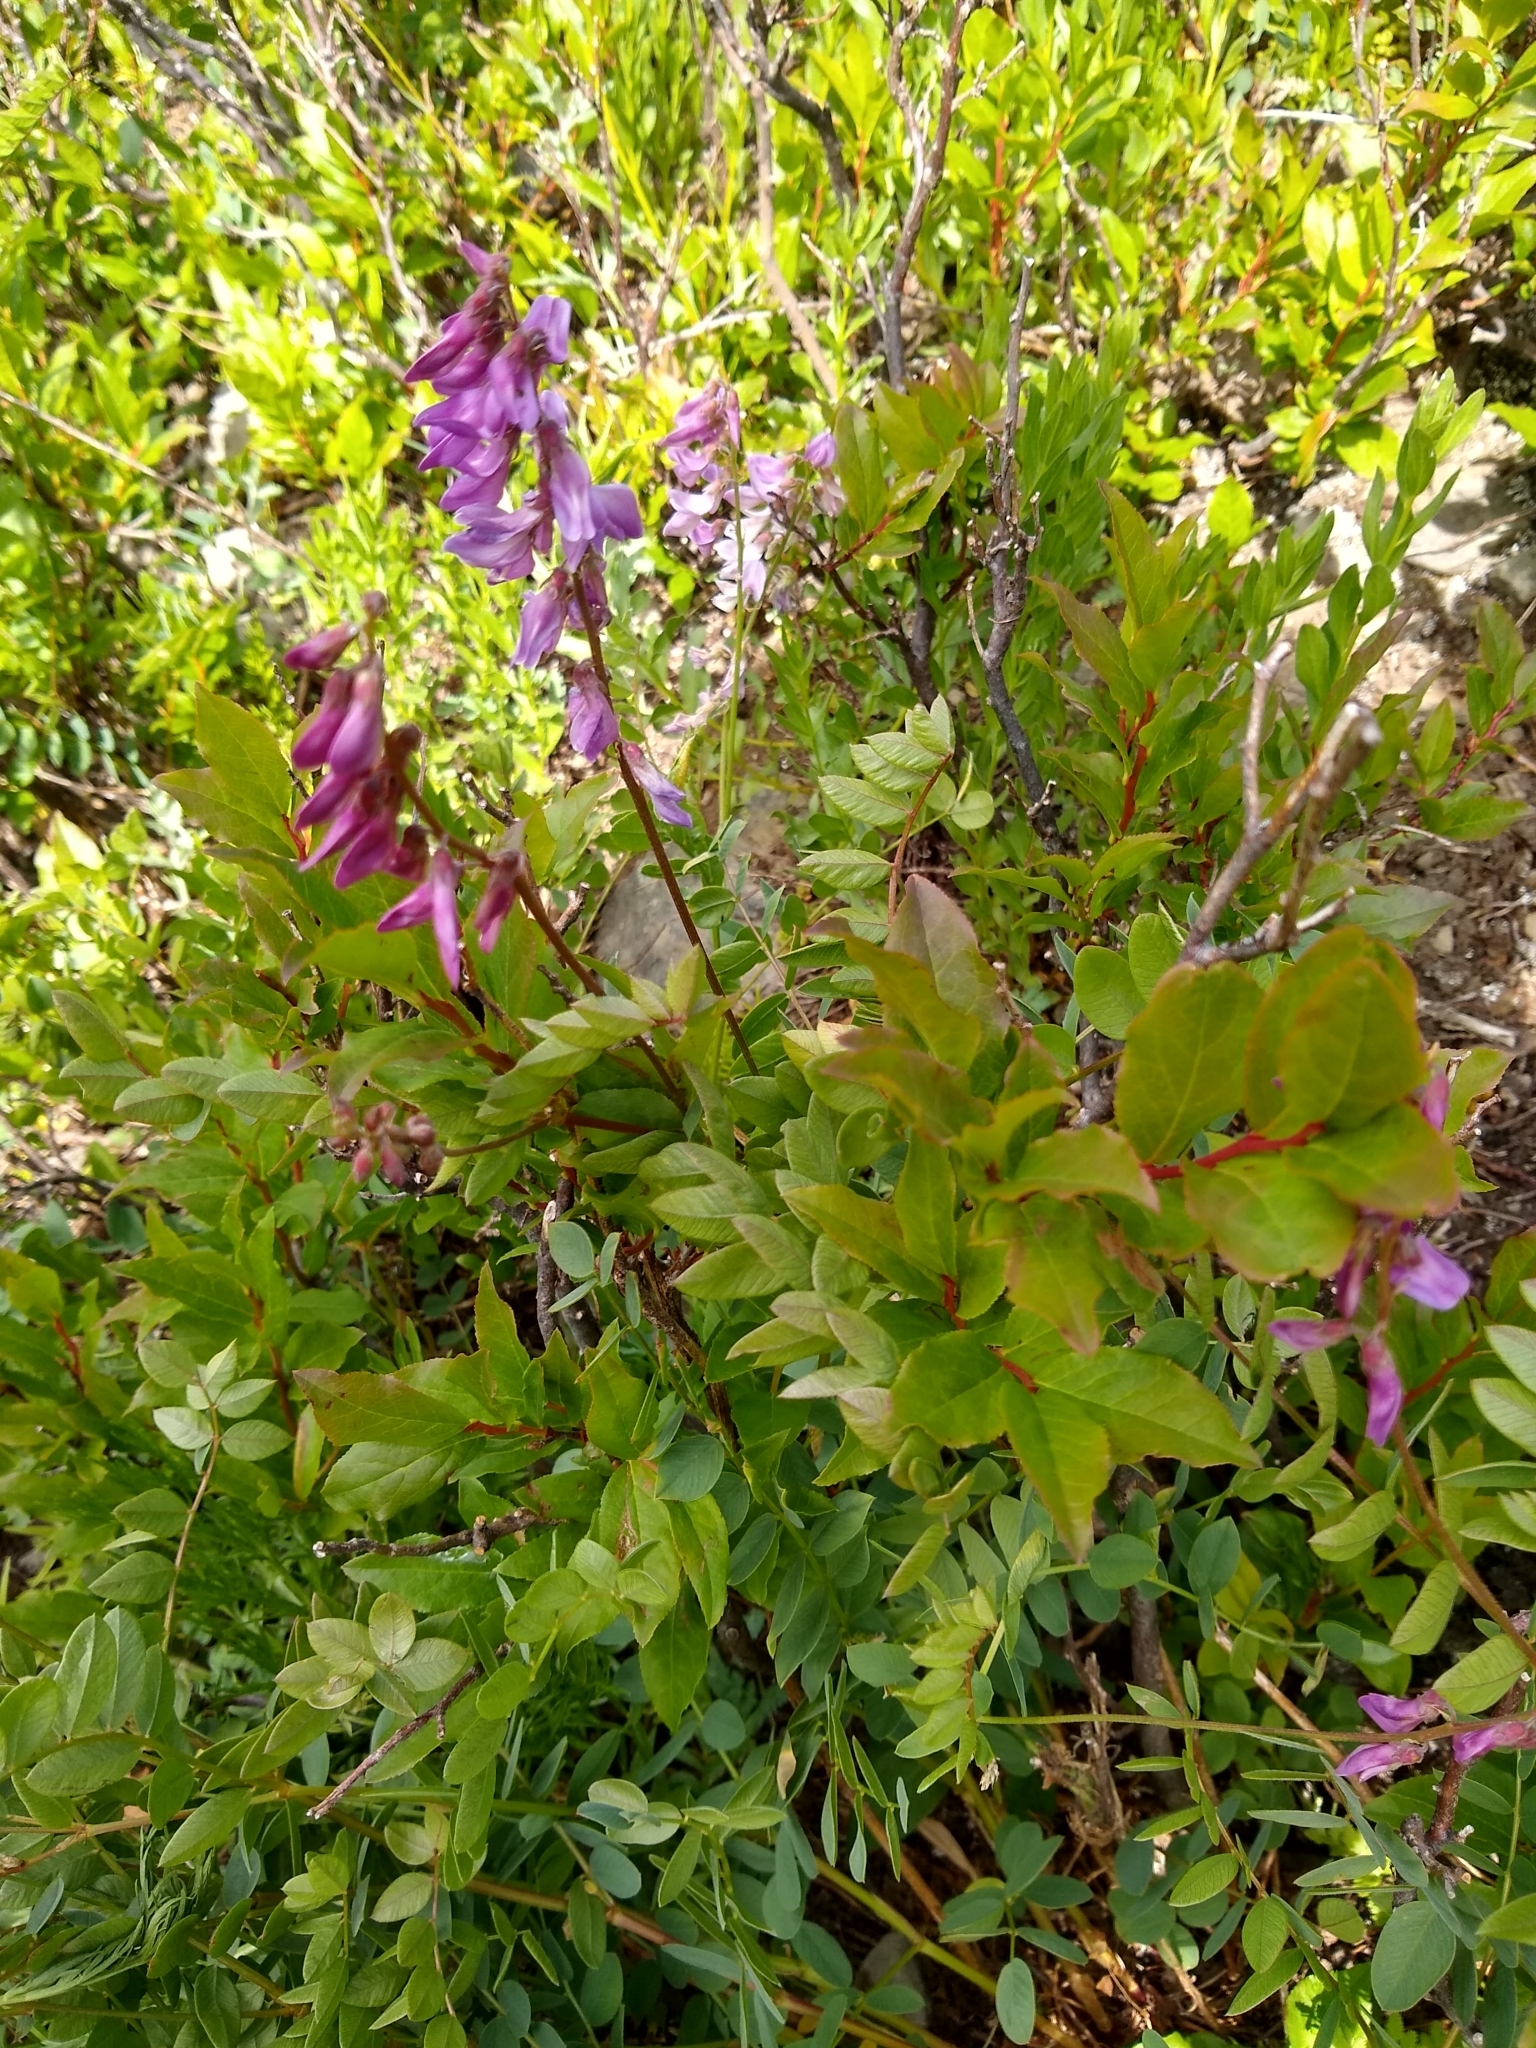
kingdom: Plantae
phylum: Tracheophyta
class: Magnoliopsida
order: Fabales
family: Fabaceae
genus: Hedysarum
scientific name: Hedysarum occidentale
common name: Western hedysarum
